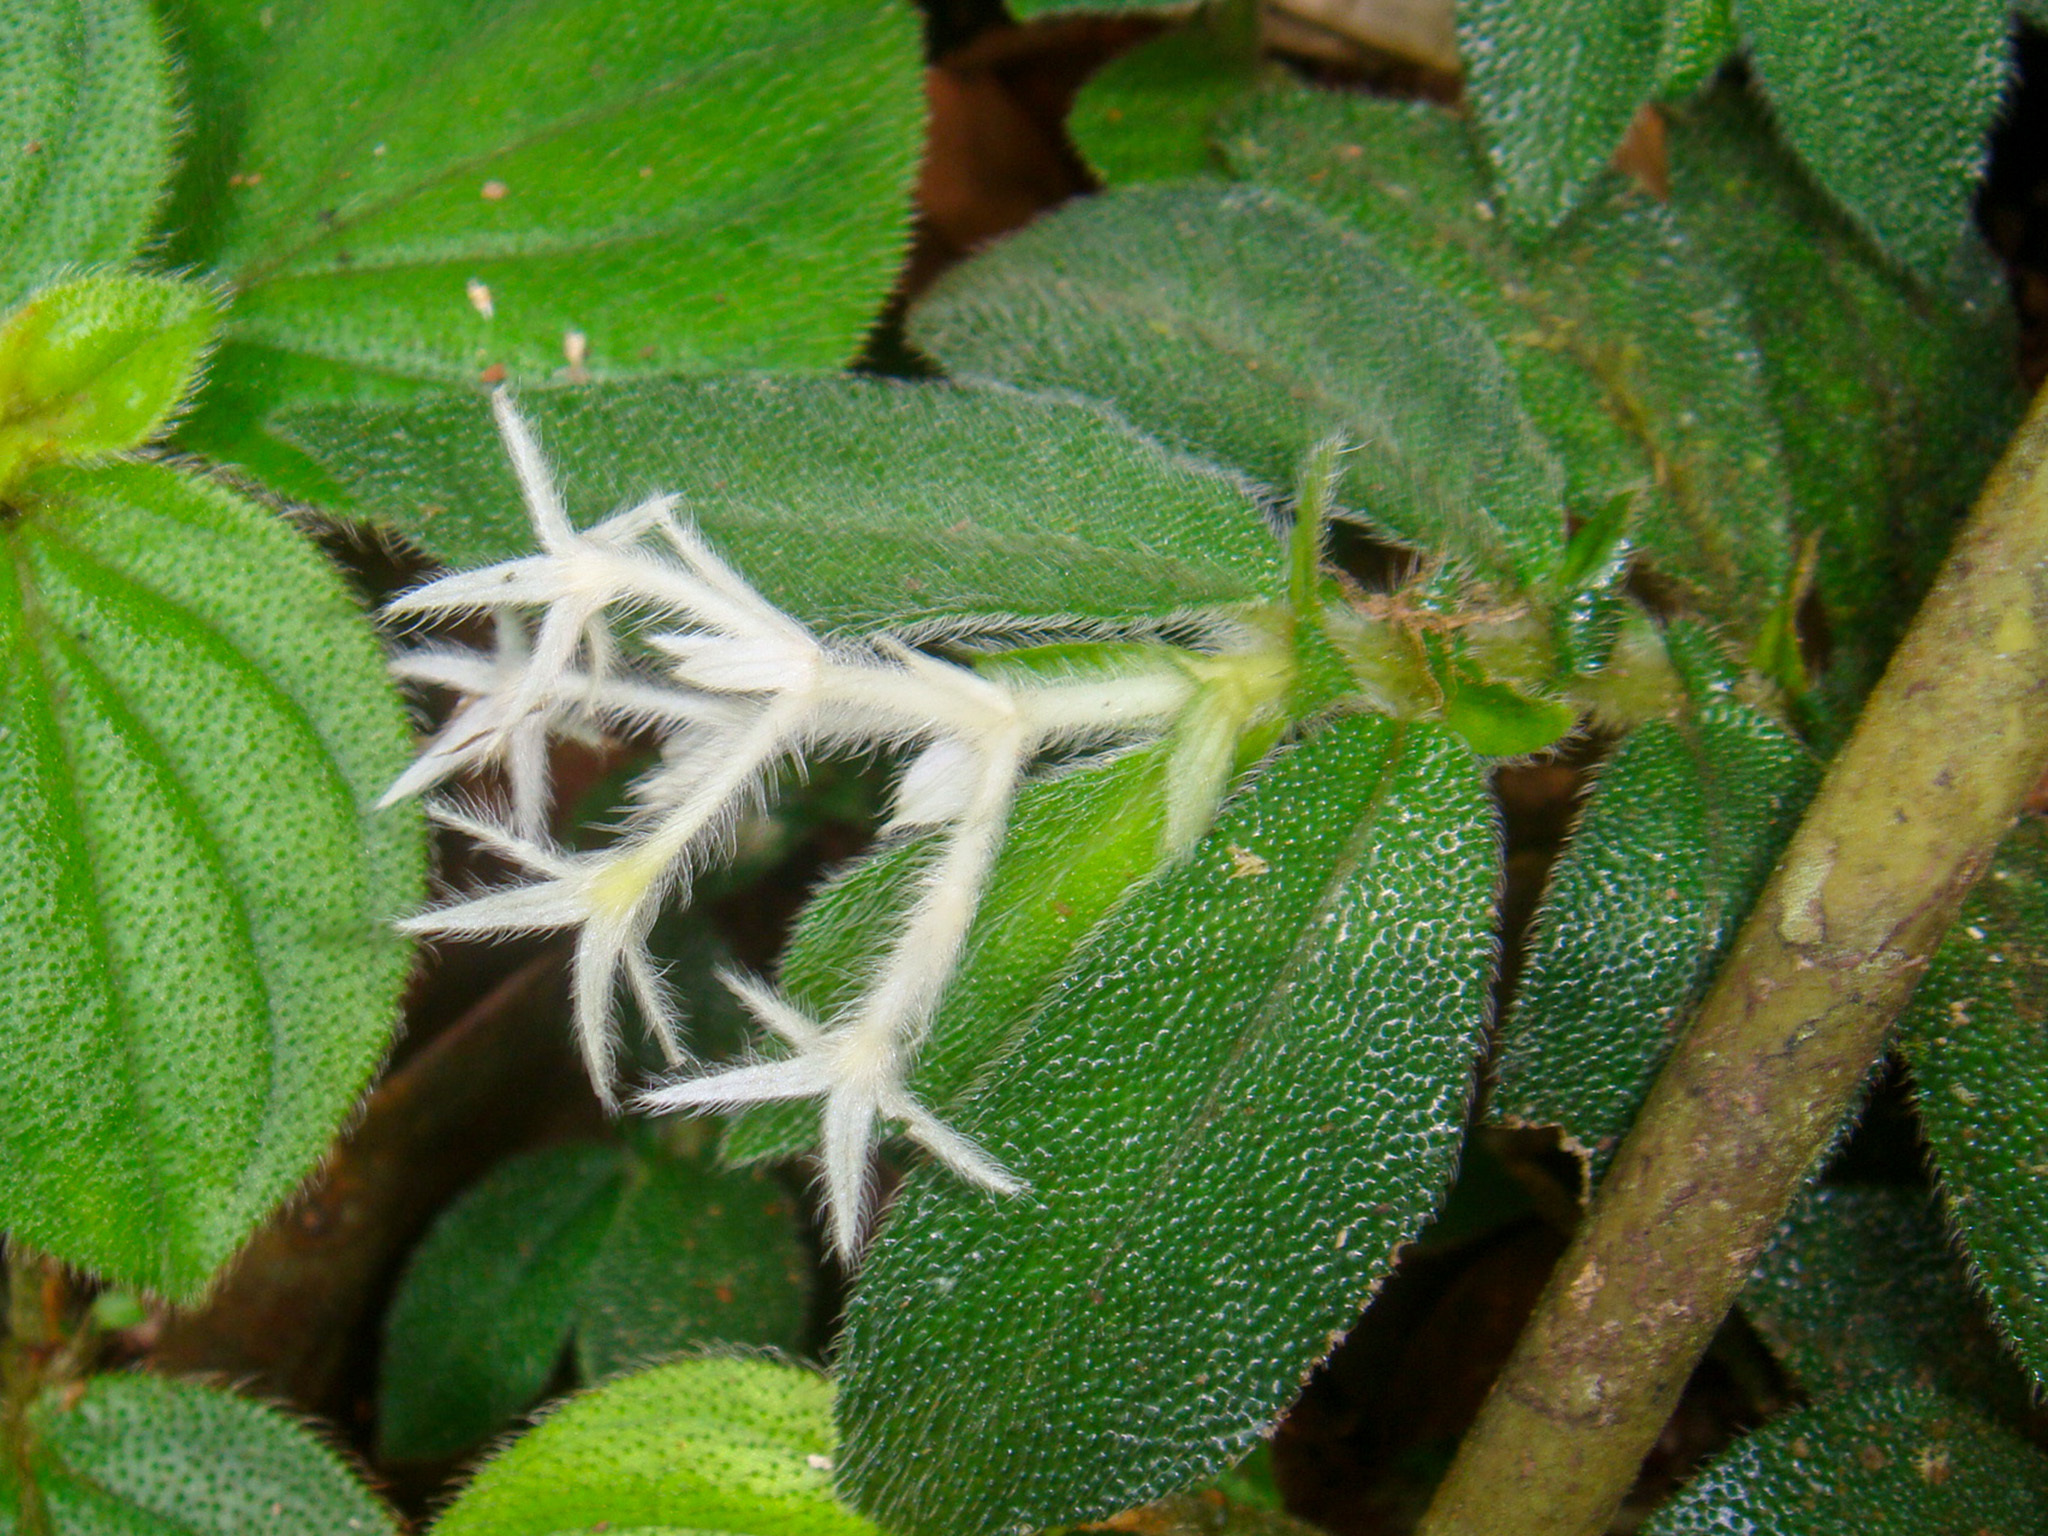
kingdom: Plantae
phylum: Tracheophyta
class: Magnoliopsida
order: Gentianales
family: Rubiaceae
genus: Argostemma
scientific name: Argostemma parvifolium
